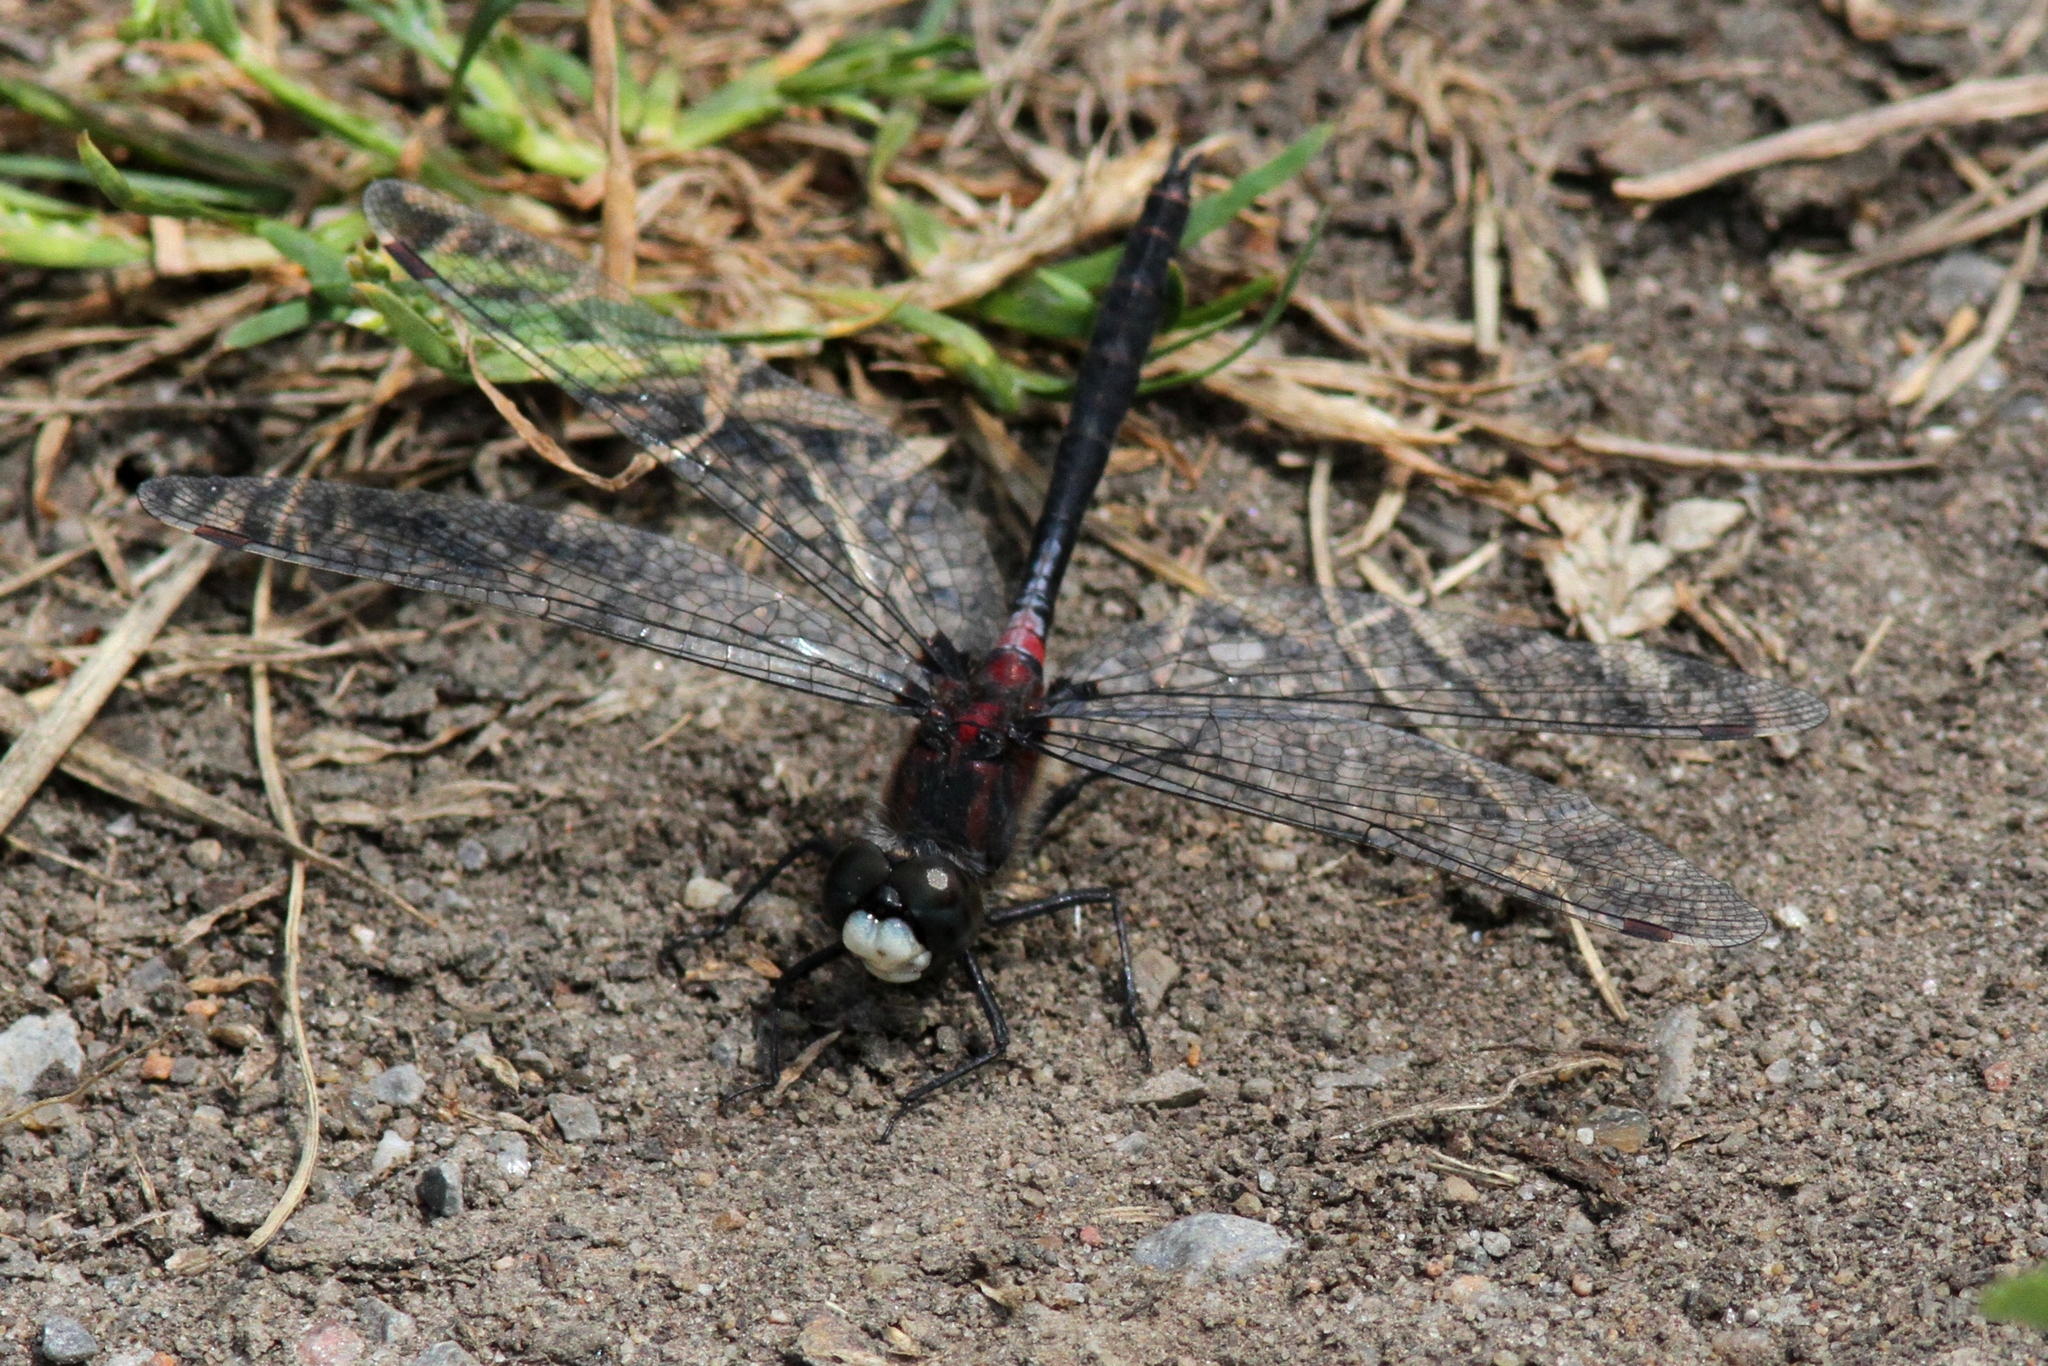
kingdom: Animalia
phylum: Arthropoda
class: Insecta
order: Odonata
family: Libellulidae
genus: Leucorrhinia
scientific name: Leucorrhinia proxima
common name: Belted whiteface
